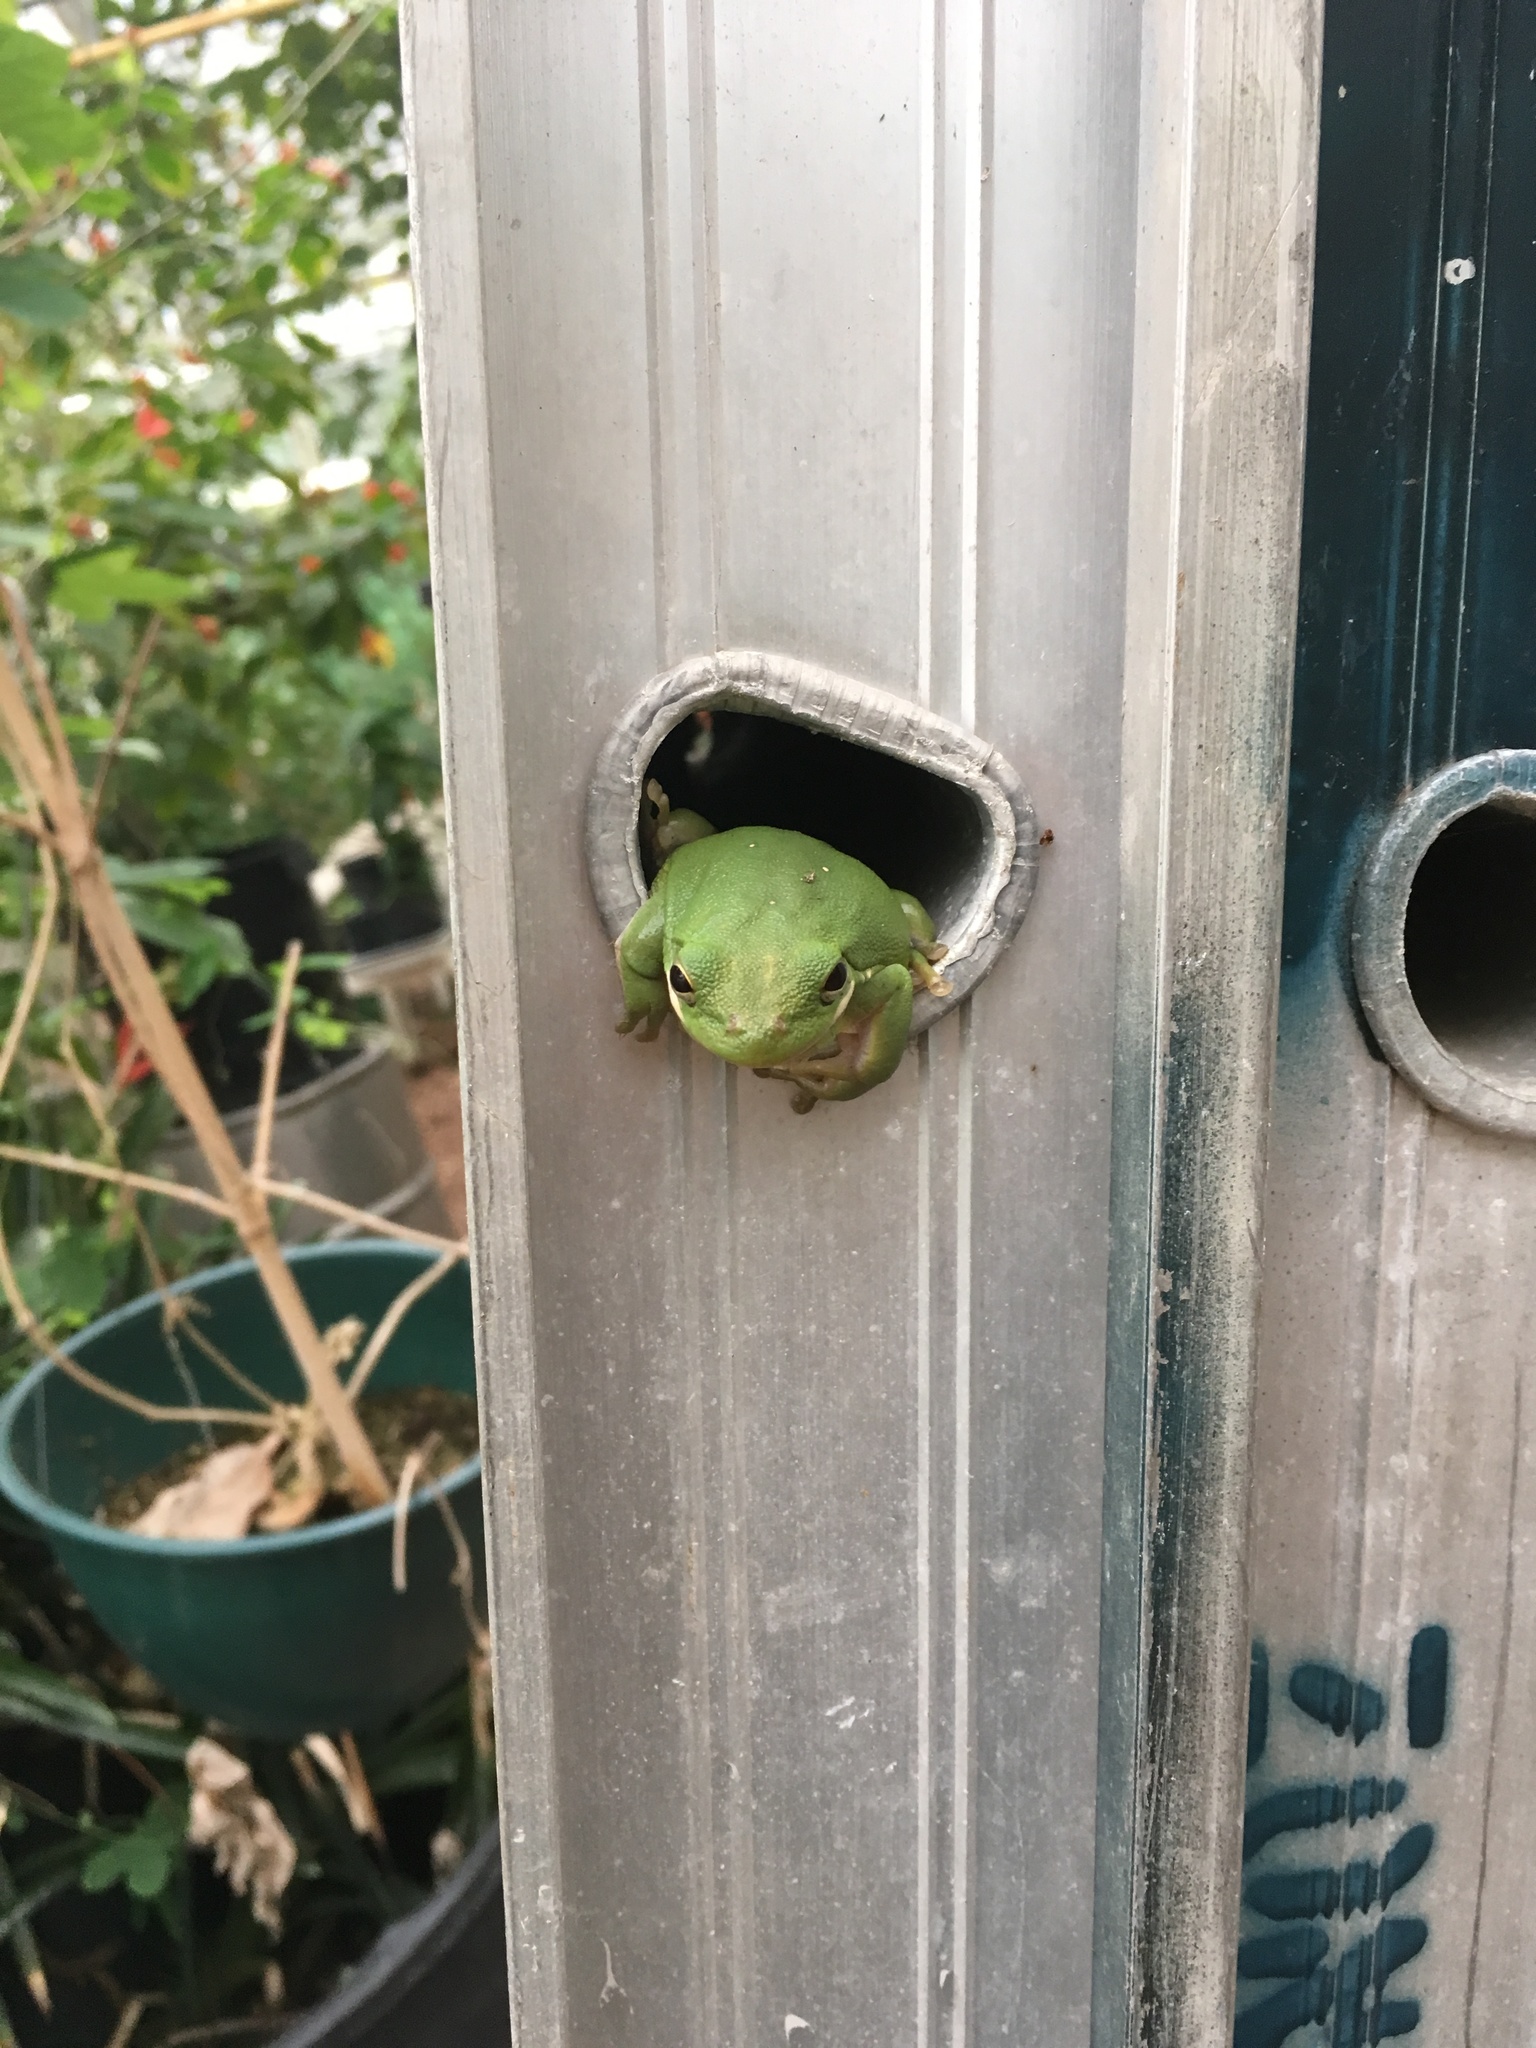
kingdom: Animalia
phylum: Chordata
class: Amphibia
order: Anura
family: Hylidae
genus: Dryophytes
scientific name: Dryophytes cinereus
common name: Green treefrog
